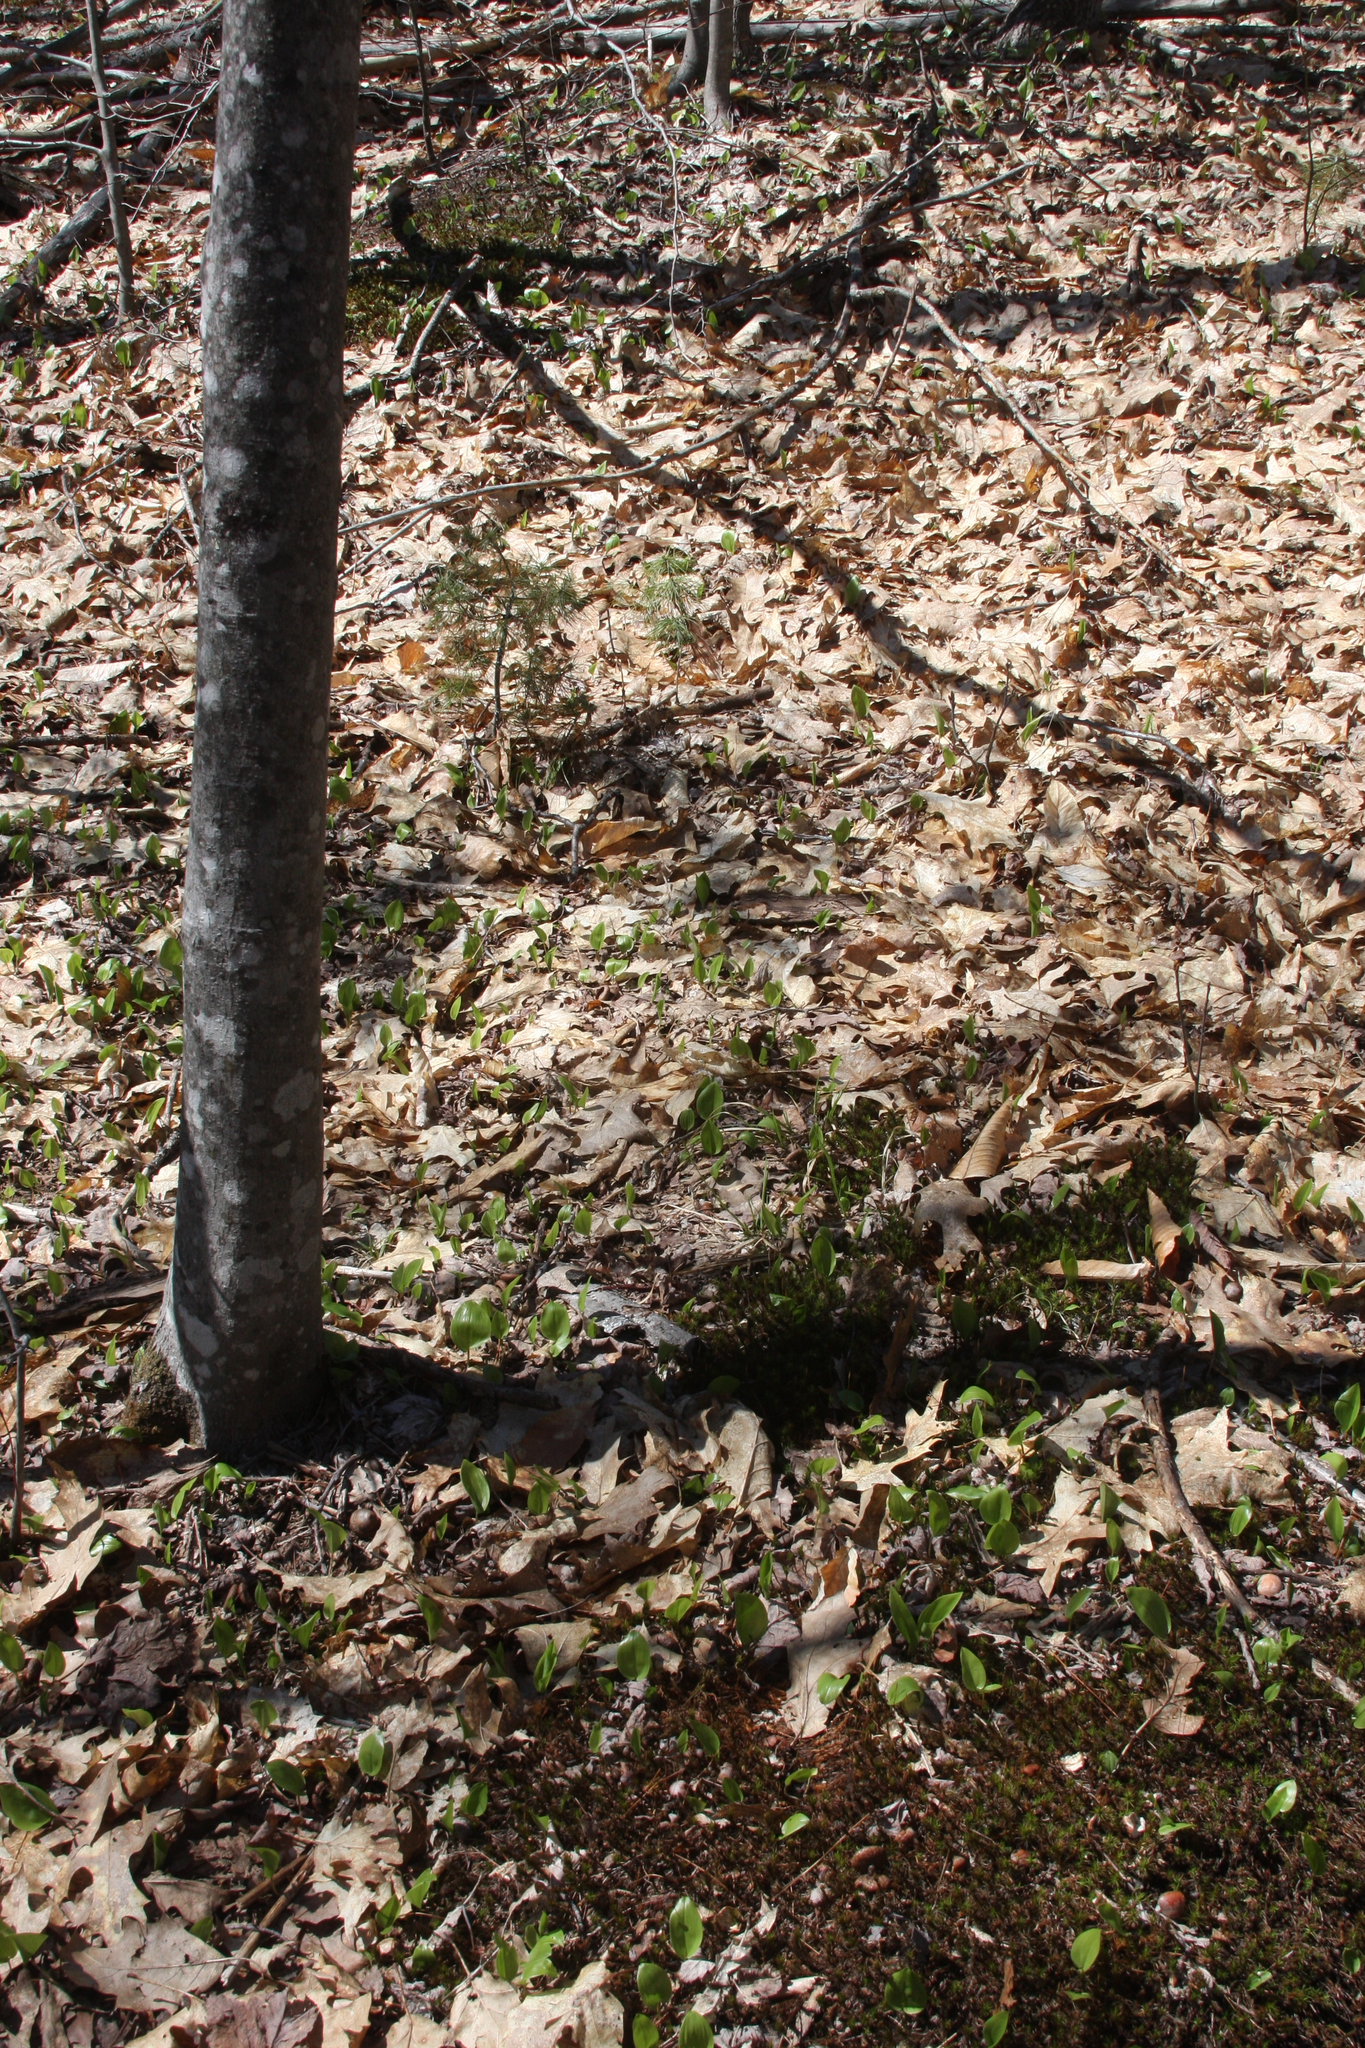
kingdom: Plantae
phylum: Tracheophyta
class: Liliopsida
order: Asparagales
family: Asparagaceae
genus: Maianthemum
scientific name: Maianthemum canadense
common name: False lily-of-the-valley
